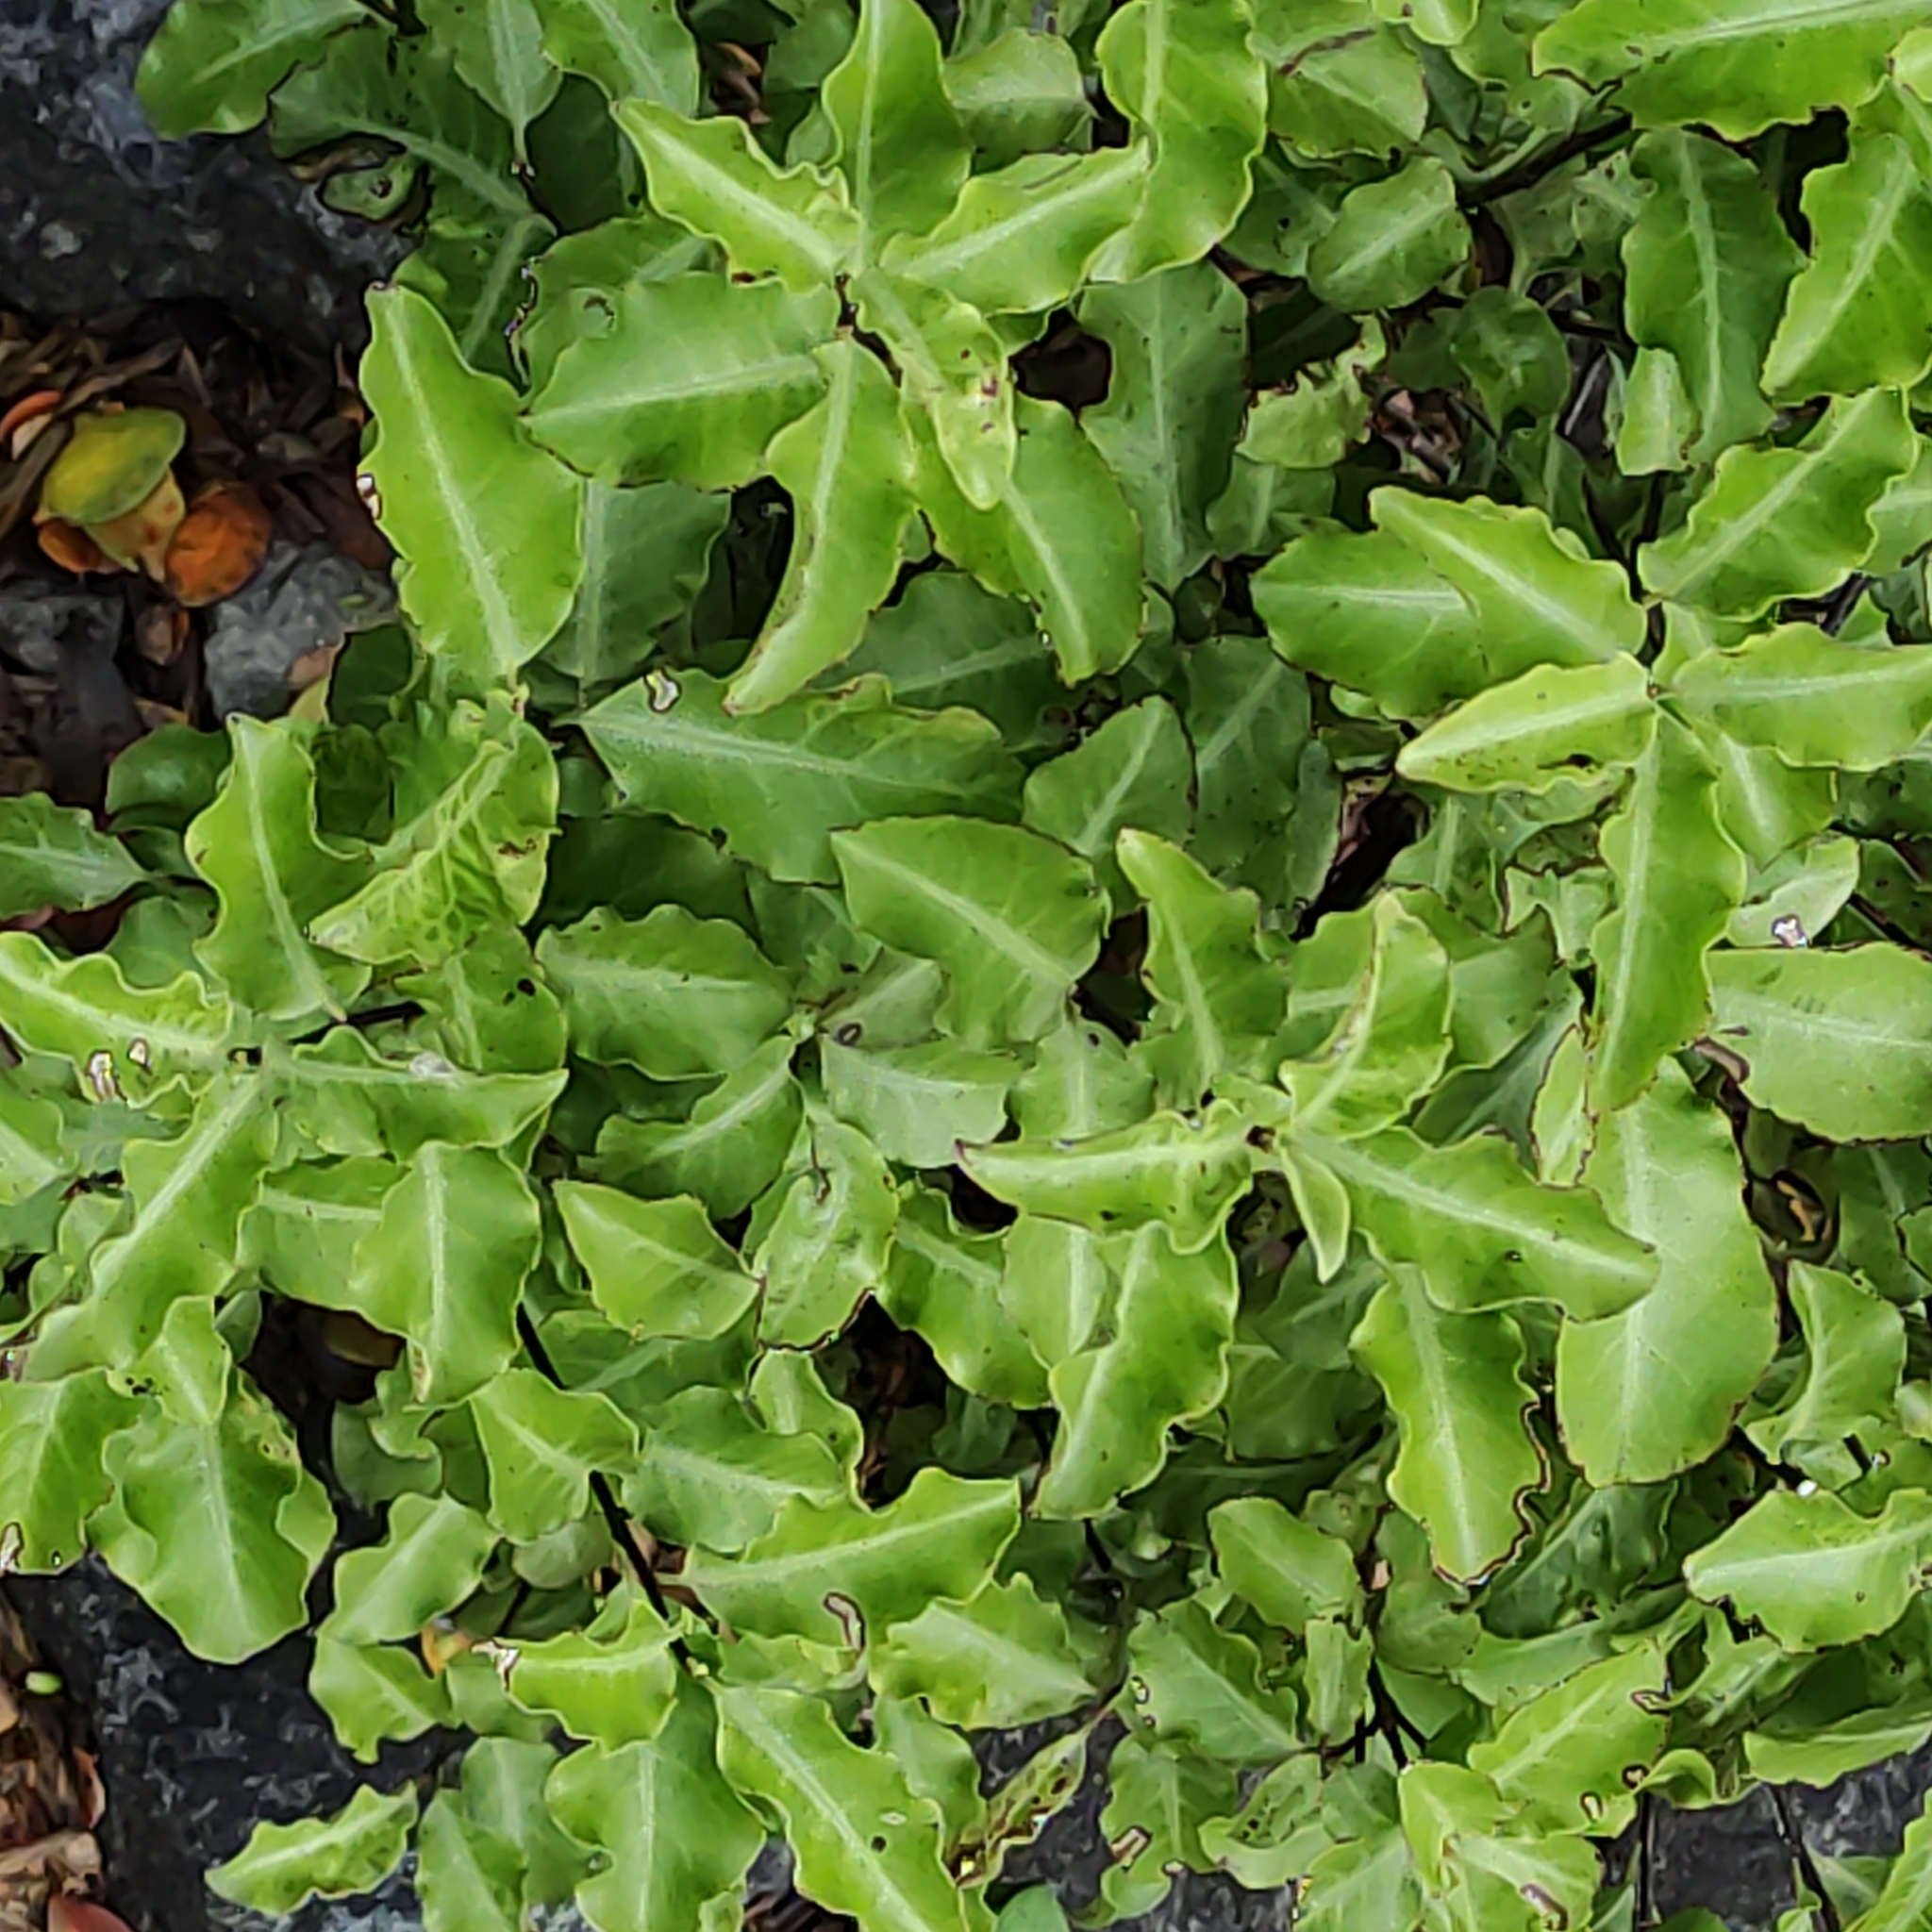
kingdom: Plantae
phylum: Tracheophyta
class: Magnoliopsida
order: Apiales
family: Pittosporaceae
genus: Pittosporum
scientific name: Pittosporum tenuifolium
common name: Kohuhu
